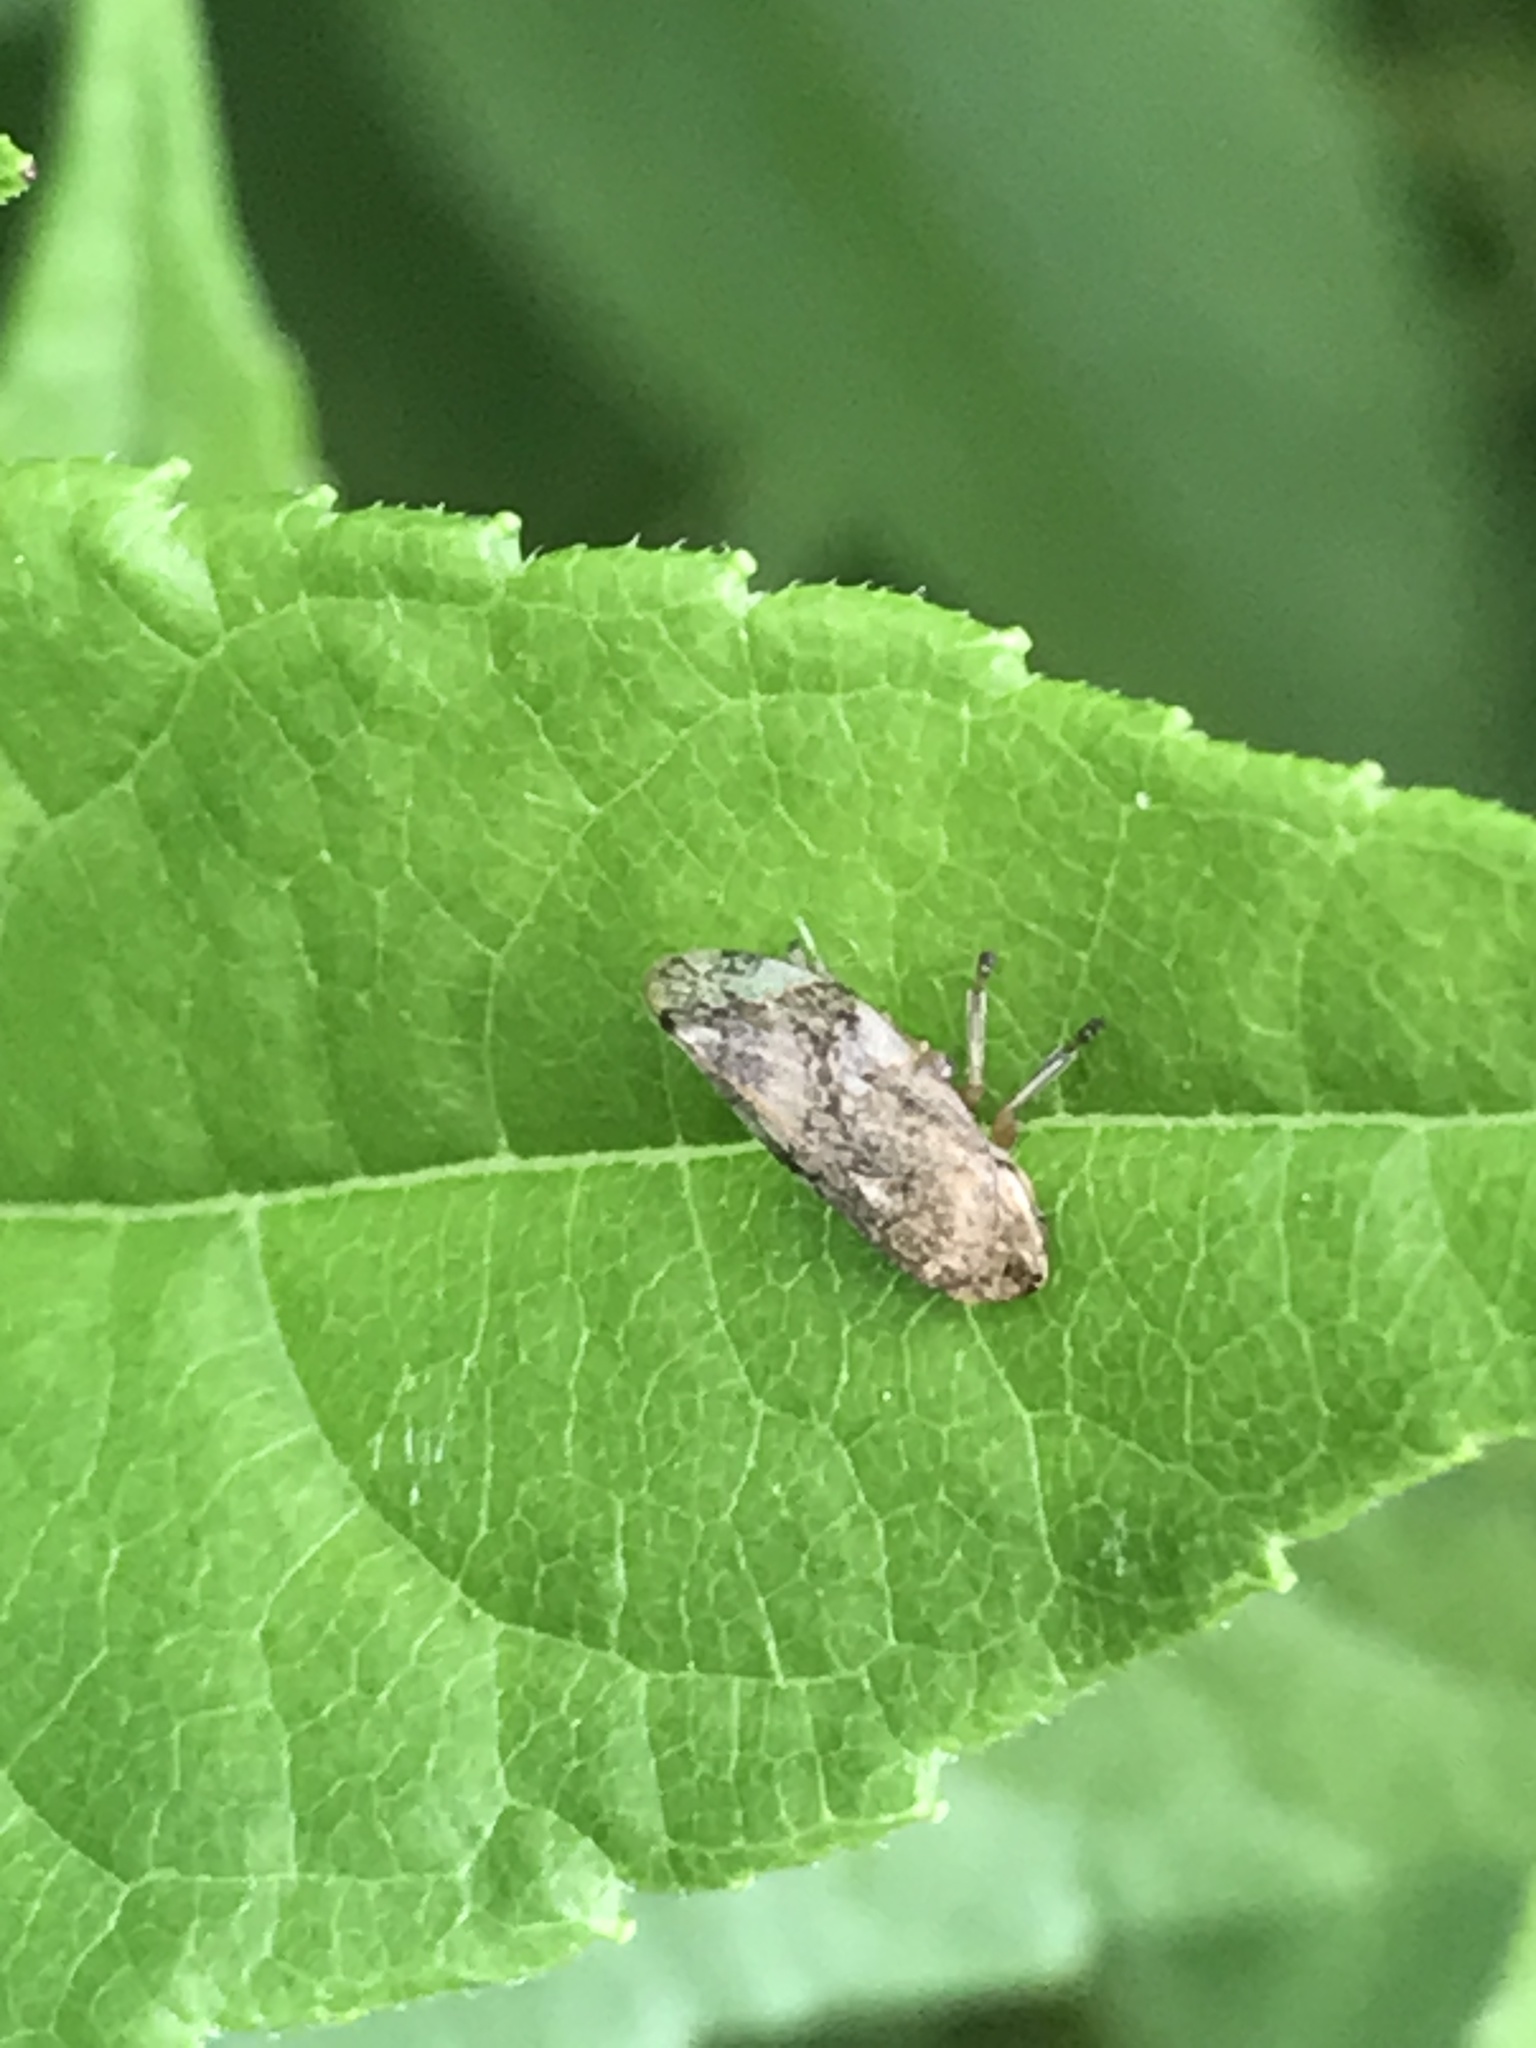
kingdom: Animalia
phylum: Arthropoda
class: Insecta
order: Hemiptera
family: Aphrophoridae
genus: Philaenus
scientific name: Philaenus spumarius
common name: Meadow spittlebug
